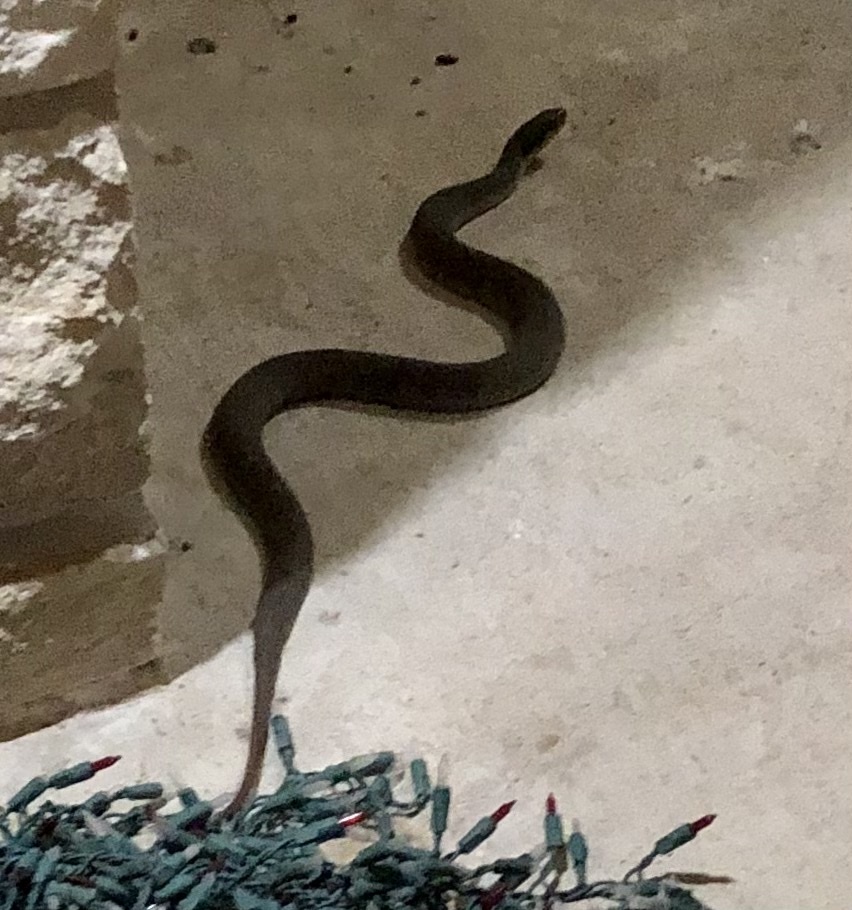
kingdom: Animalia
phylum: Chordata
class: Squamata
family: Colubridae
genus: Nerodia
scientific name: Nerodia erythrogaster
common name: Plainbelly water snake
